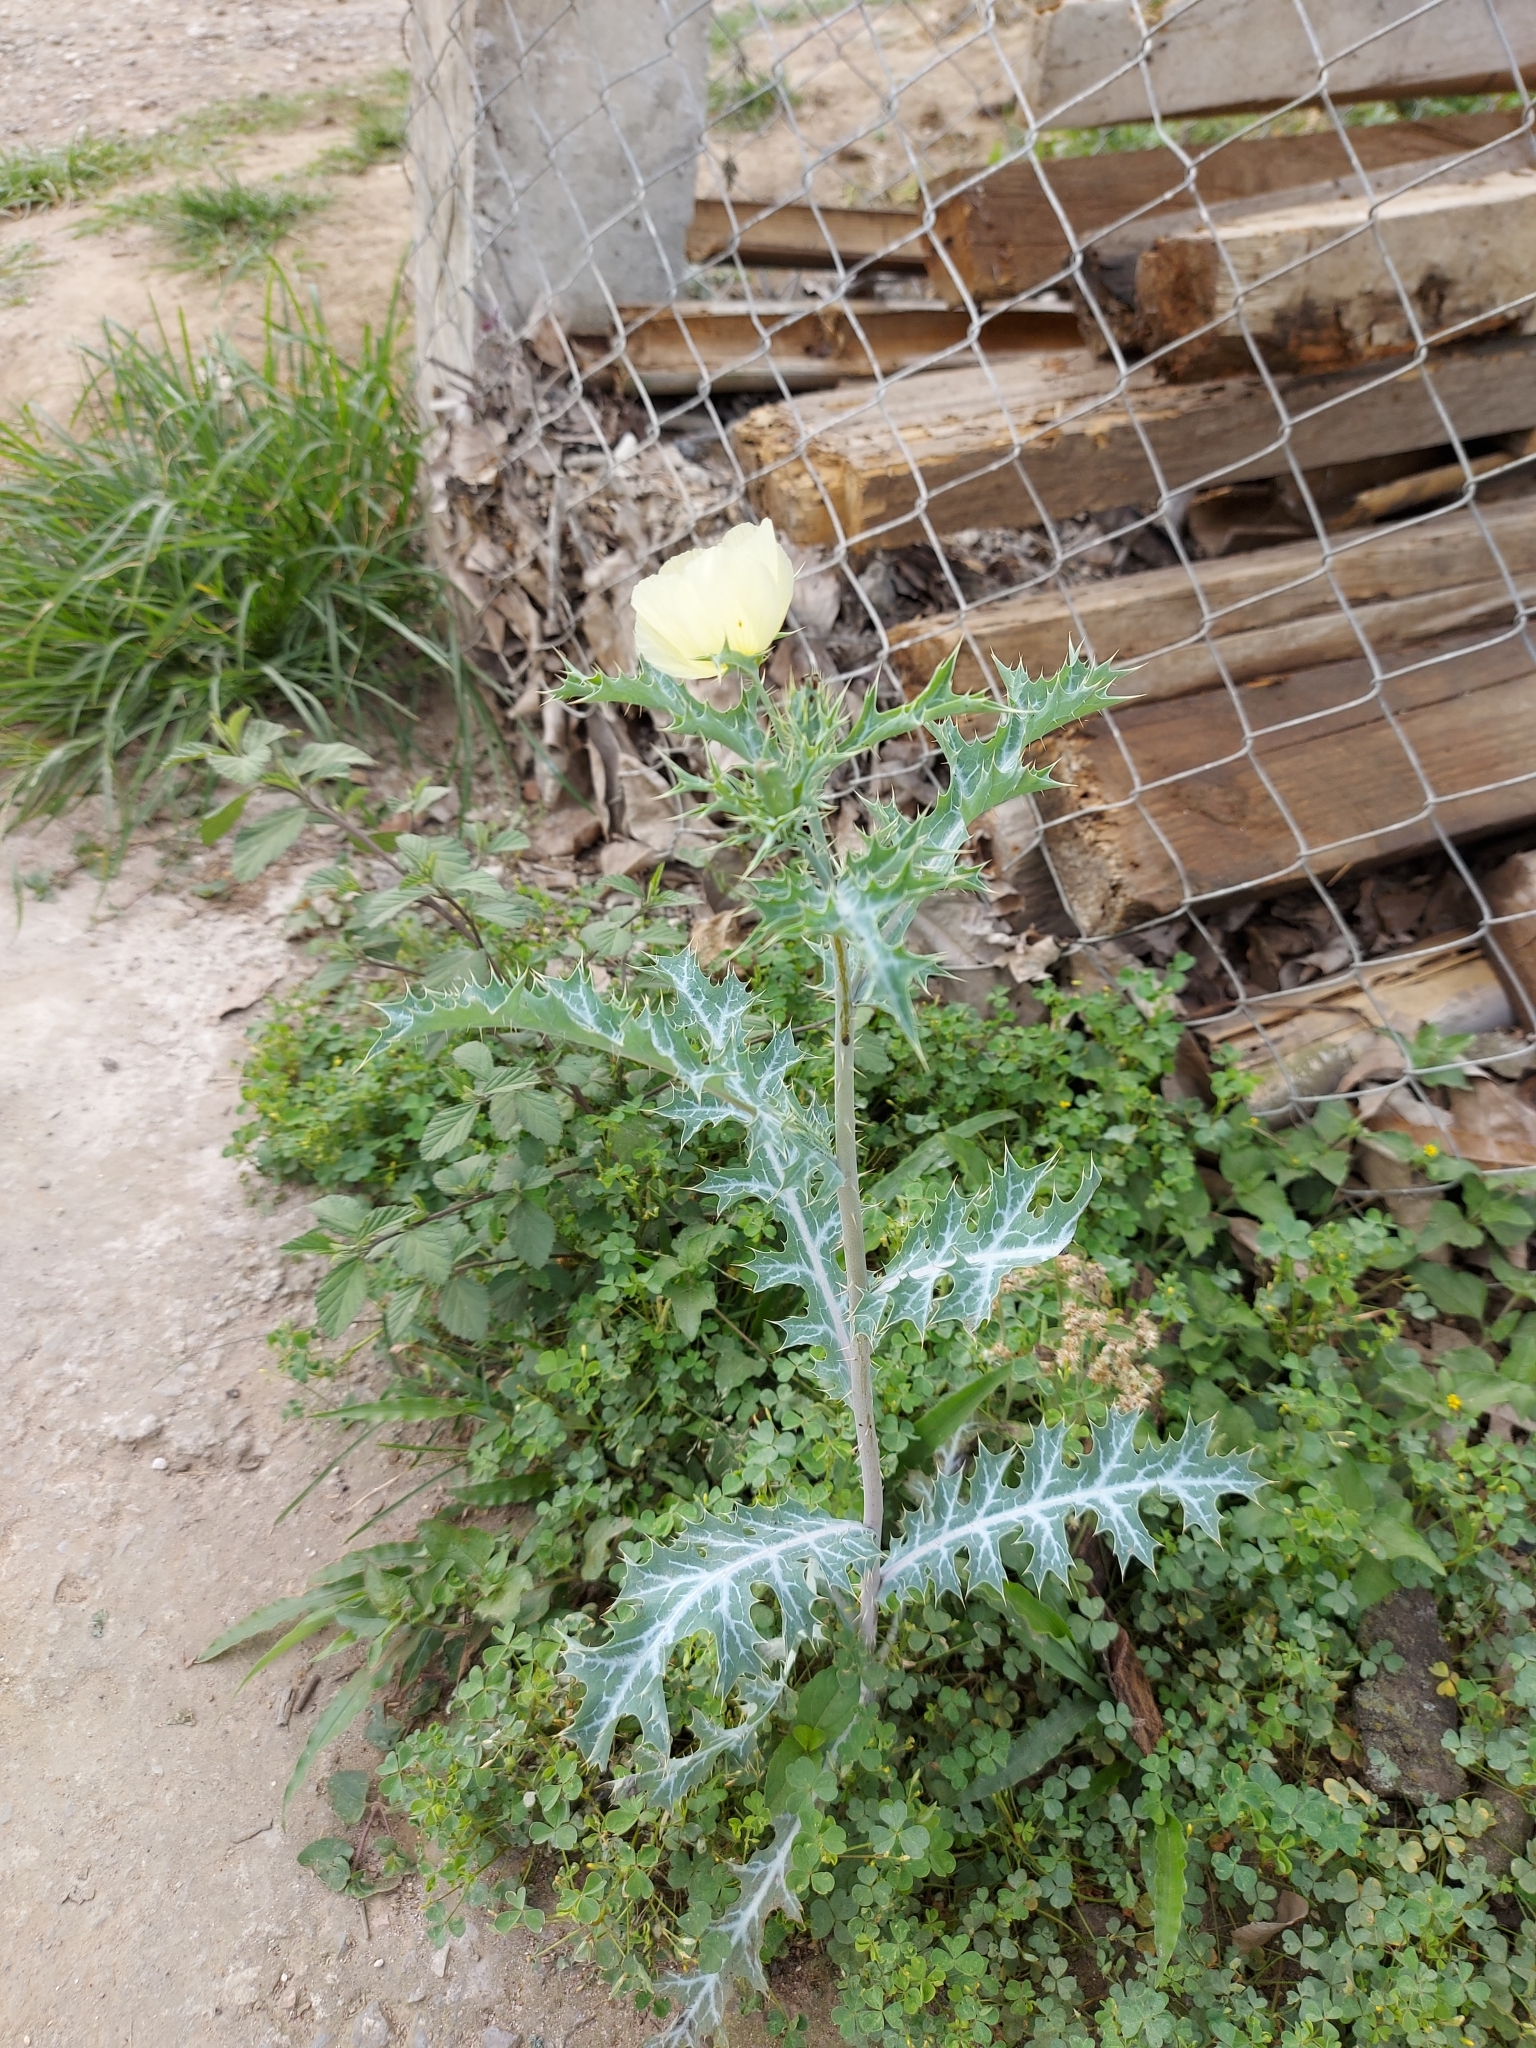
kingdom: Plantae
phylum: Tracheophyta
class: Magnoliopsida
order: Ranunculales
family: Papaveraceae
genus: Argemone
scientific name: Argemone ochroleuca
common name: White-flower mexican-poppy
